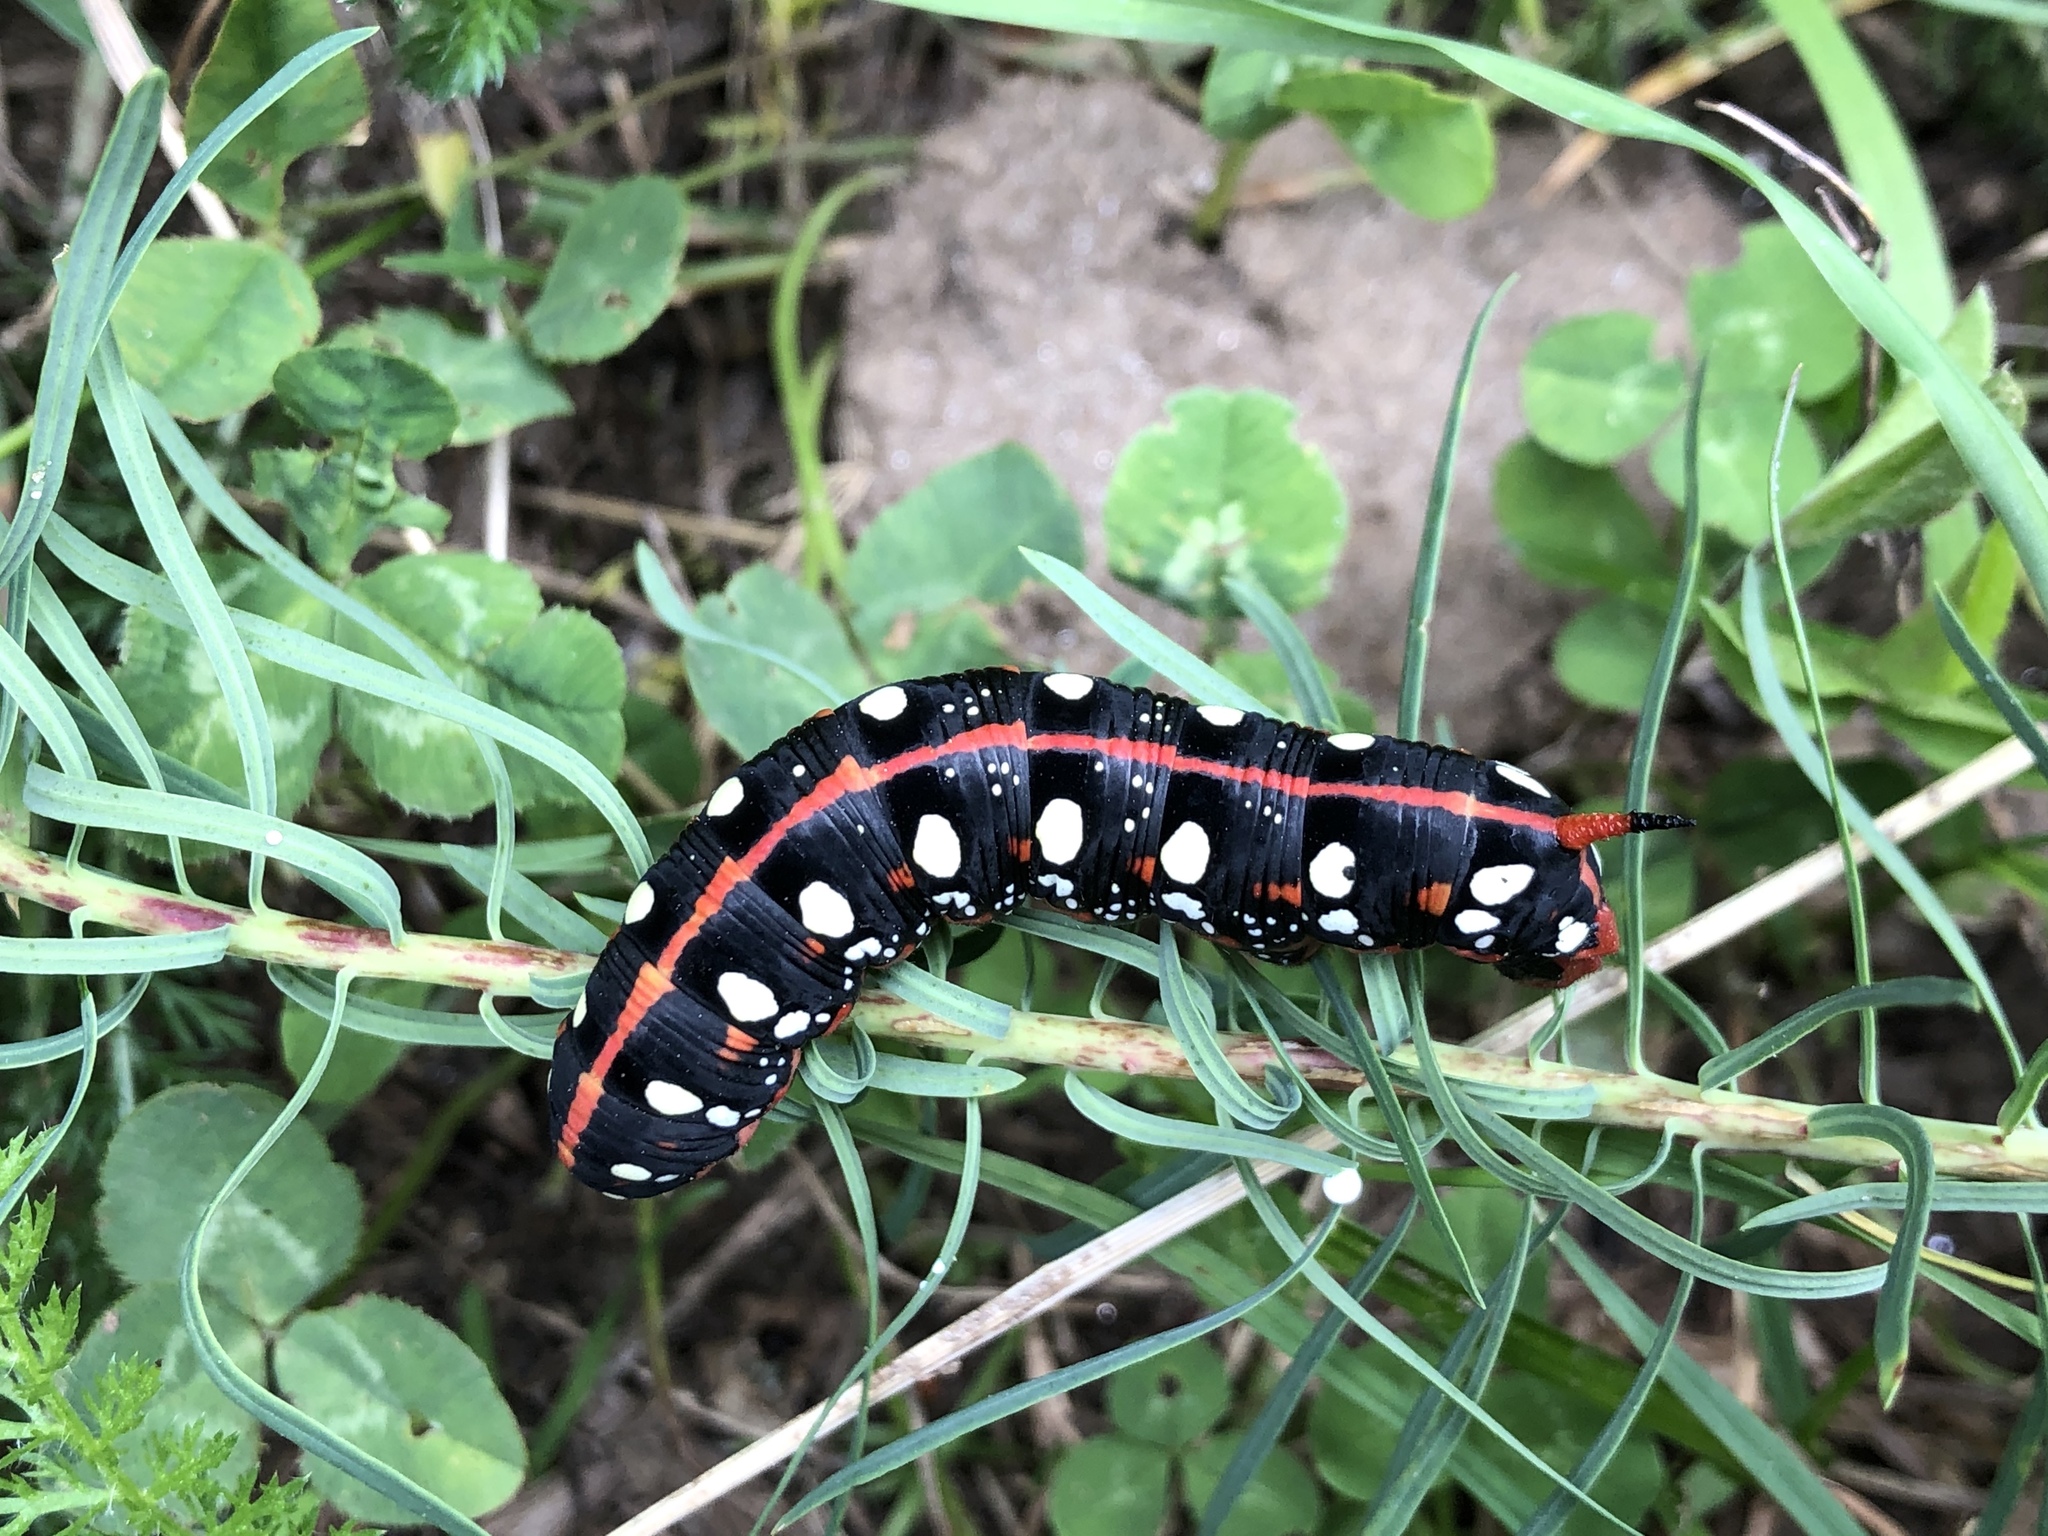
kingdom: Animalia
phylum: Arthropoda
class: Insecta
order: Lepidoptera
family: Sphingidae
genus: Hyles
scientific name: Hyles euphorbiae
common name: Spurge hawk-moth
